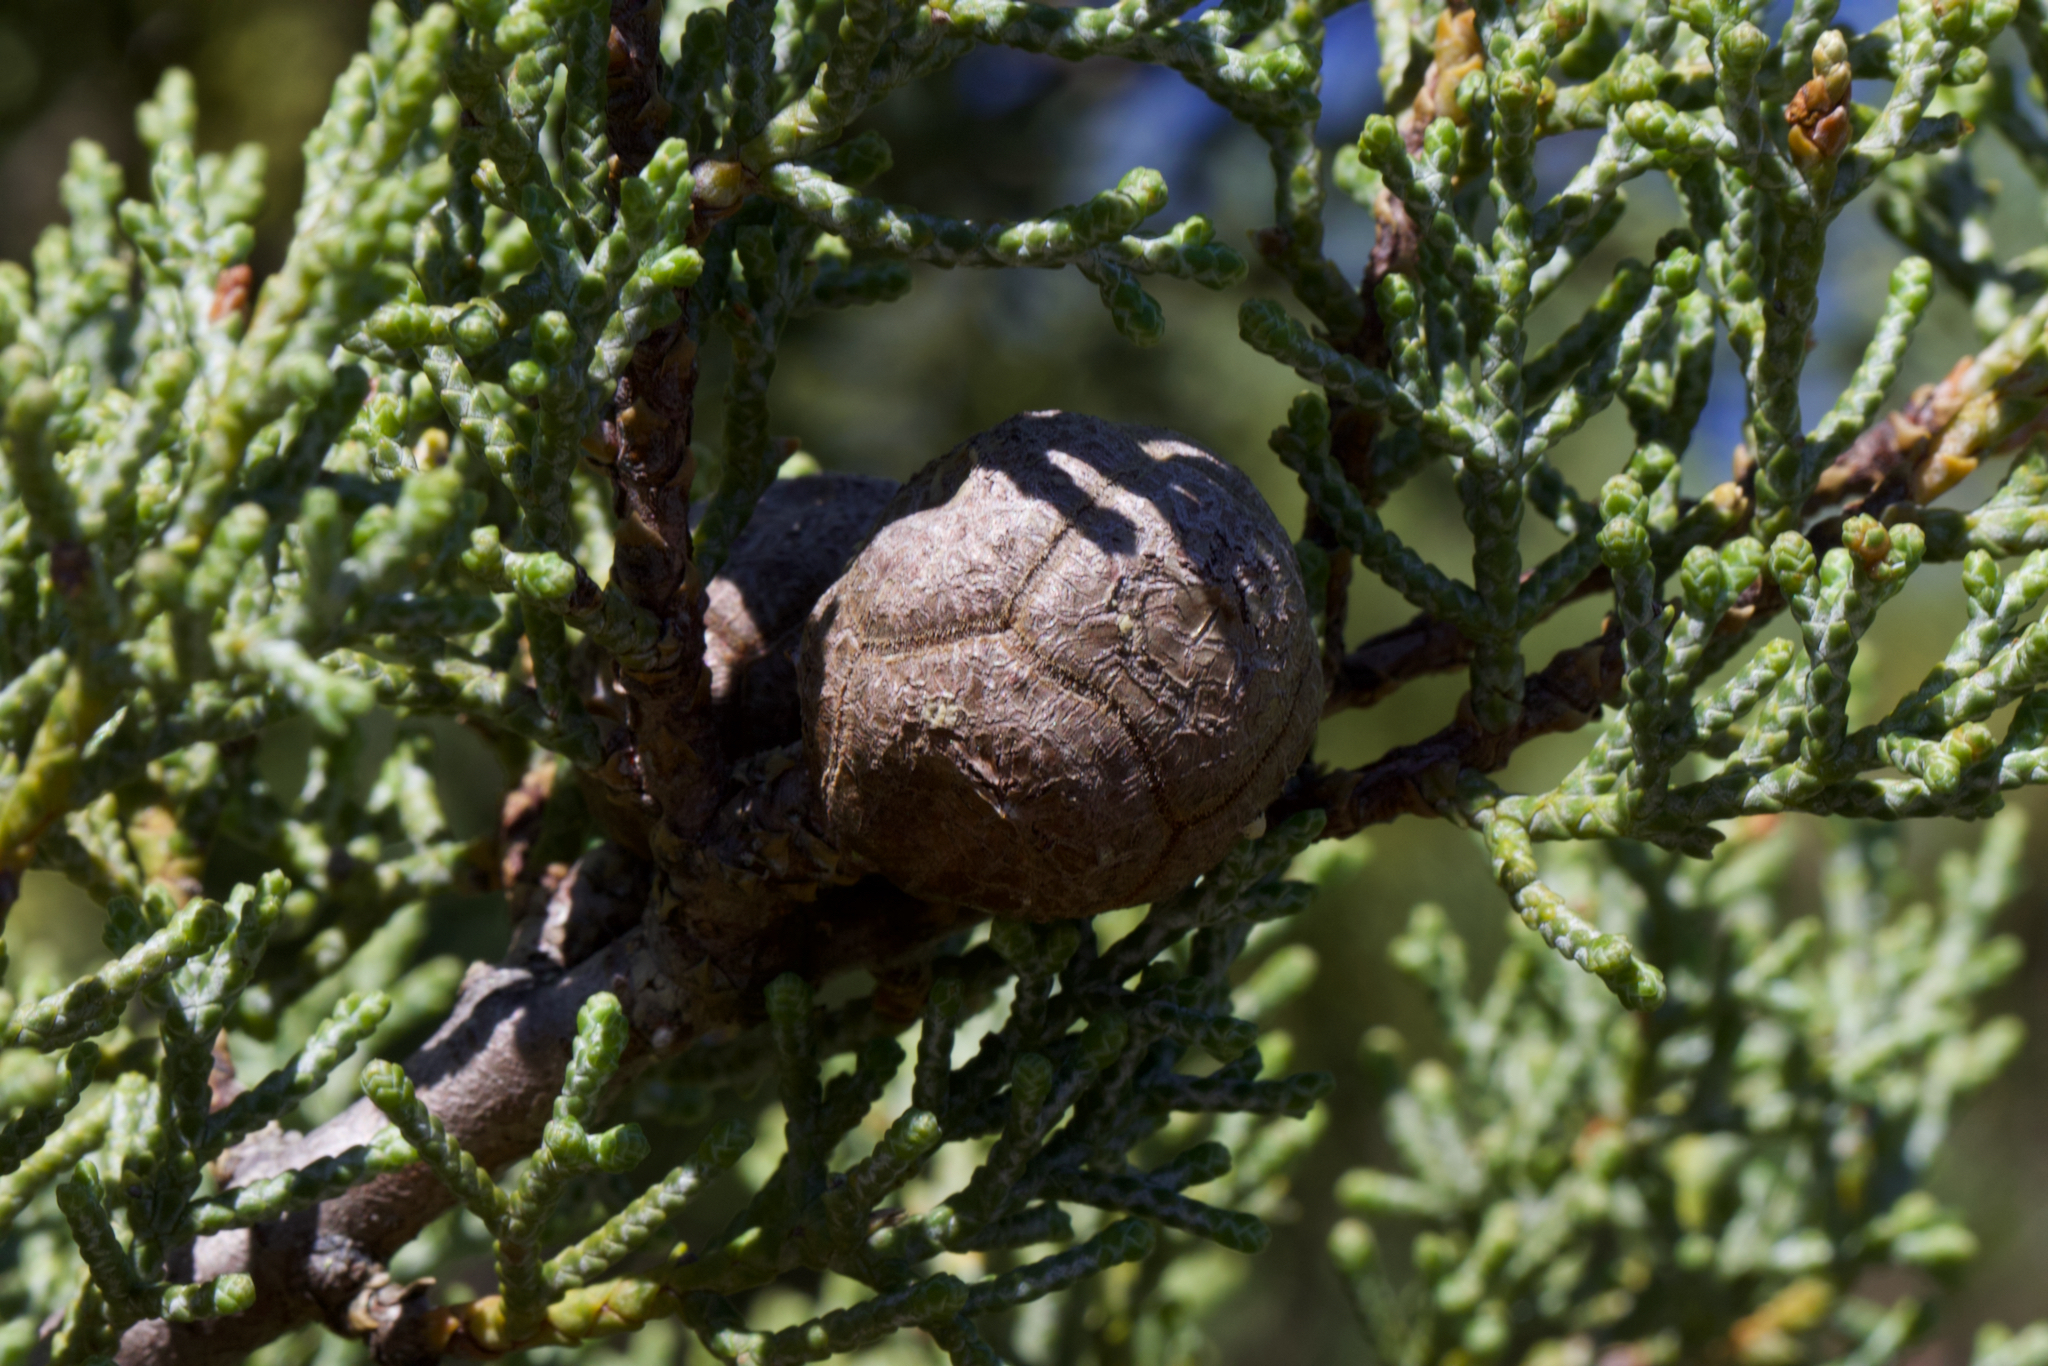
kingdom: Plantae
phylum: Tracheophyta
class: Pinopsida
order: Pinales
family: Cupressaceae
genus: Cupressus
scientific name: Cupressus sargentii
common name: Sargent cypress
